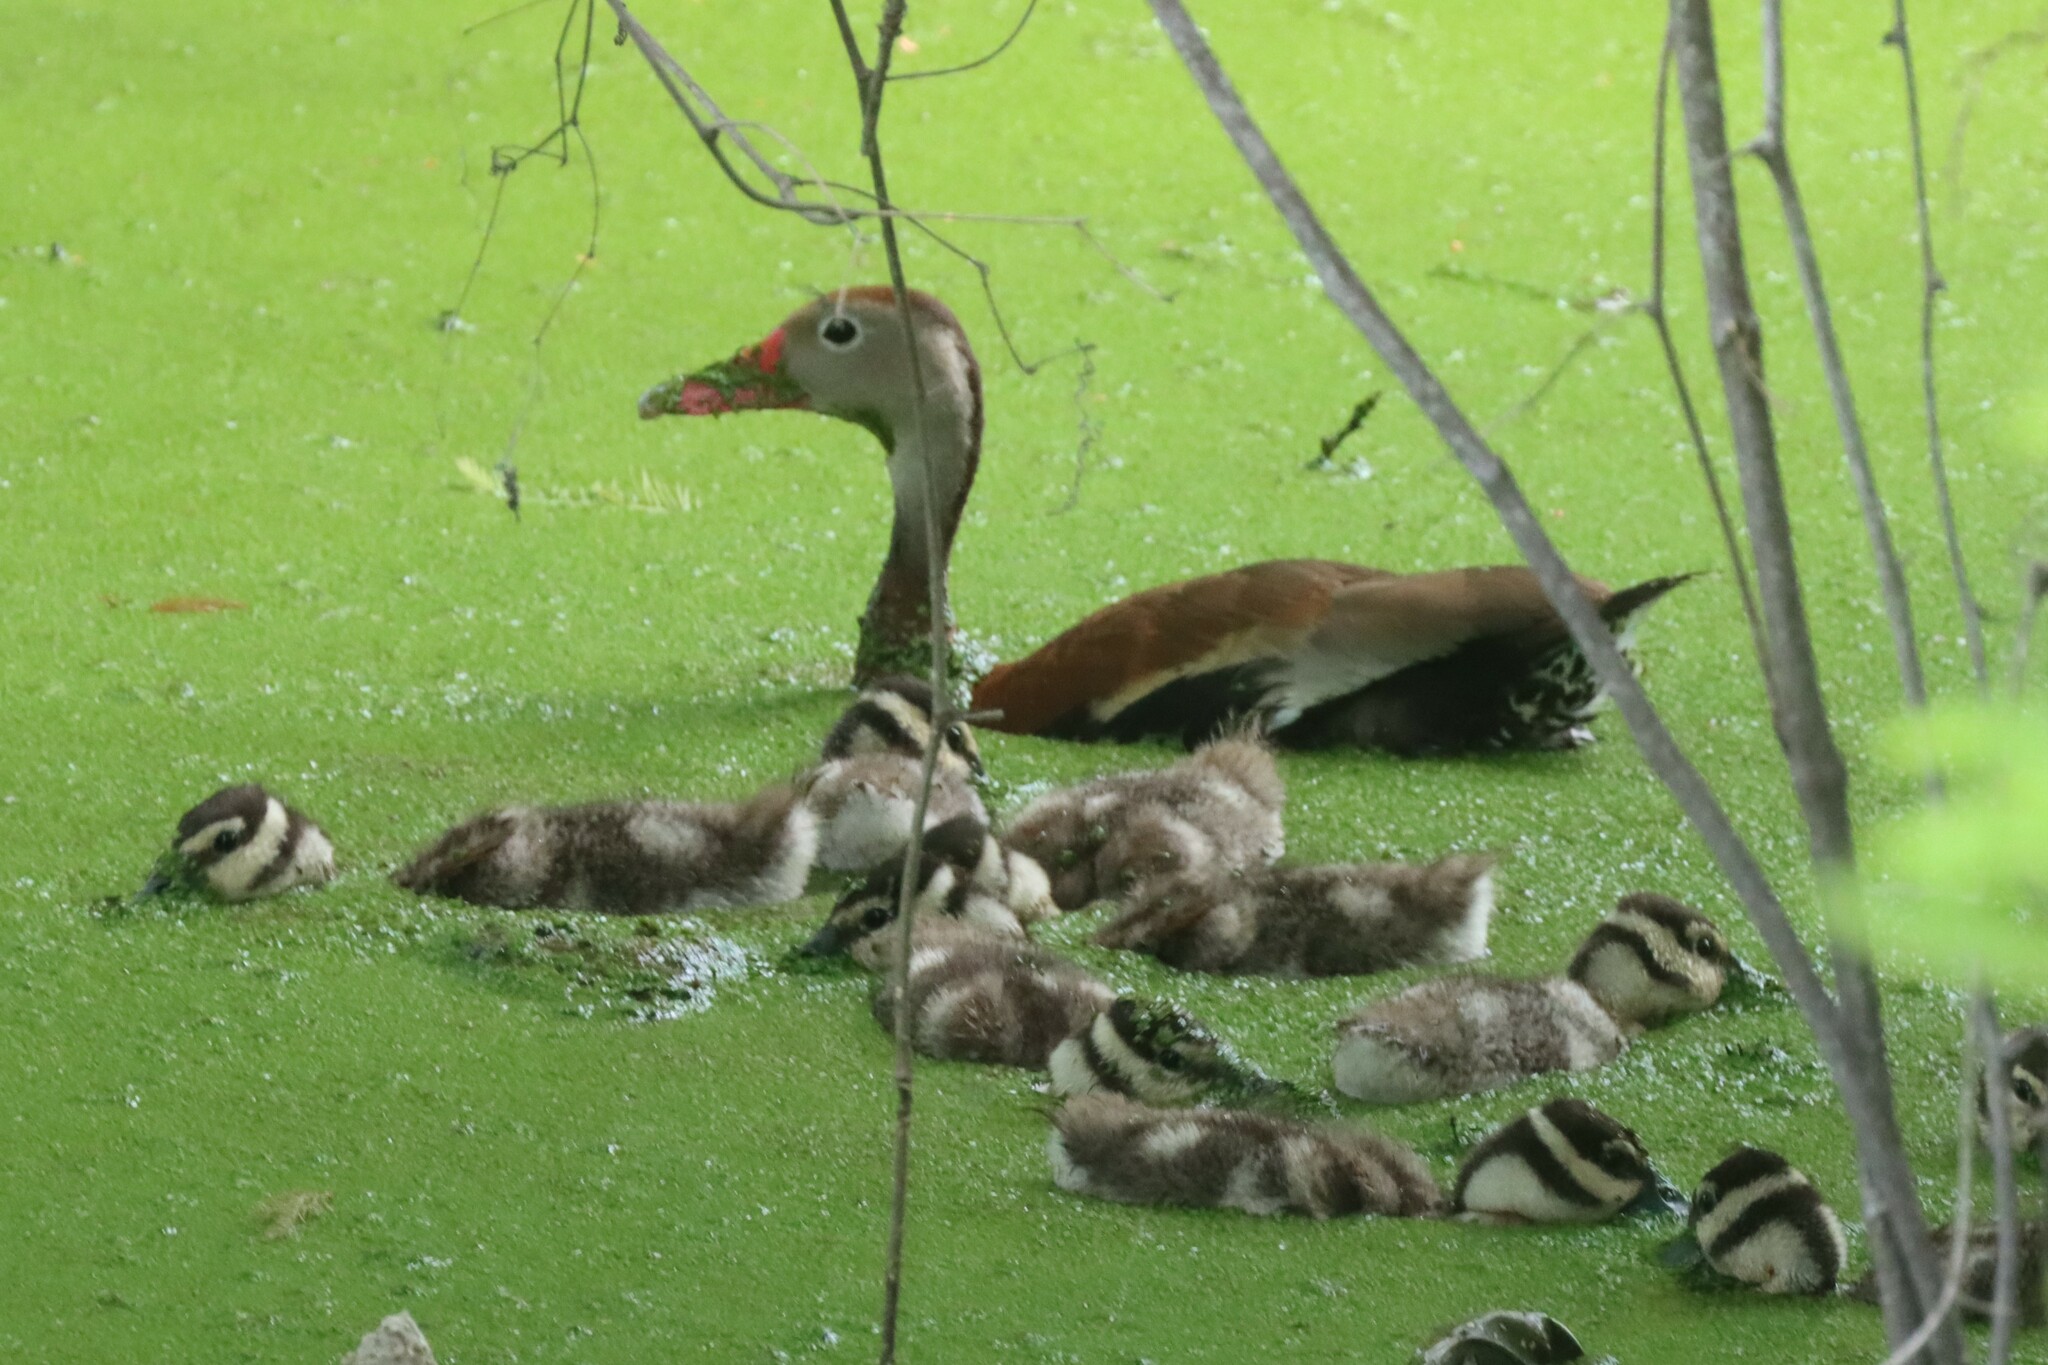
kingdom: Animalia
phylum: Chordata
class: Aves
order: Anseriformes
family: Anatidae
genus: Dendrocygna
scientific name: Dendrocygna autumnalis
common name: Black-bellied whistling duck
